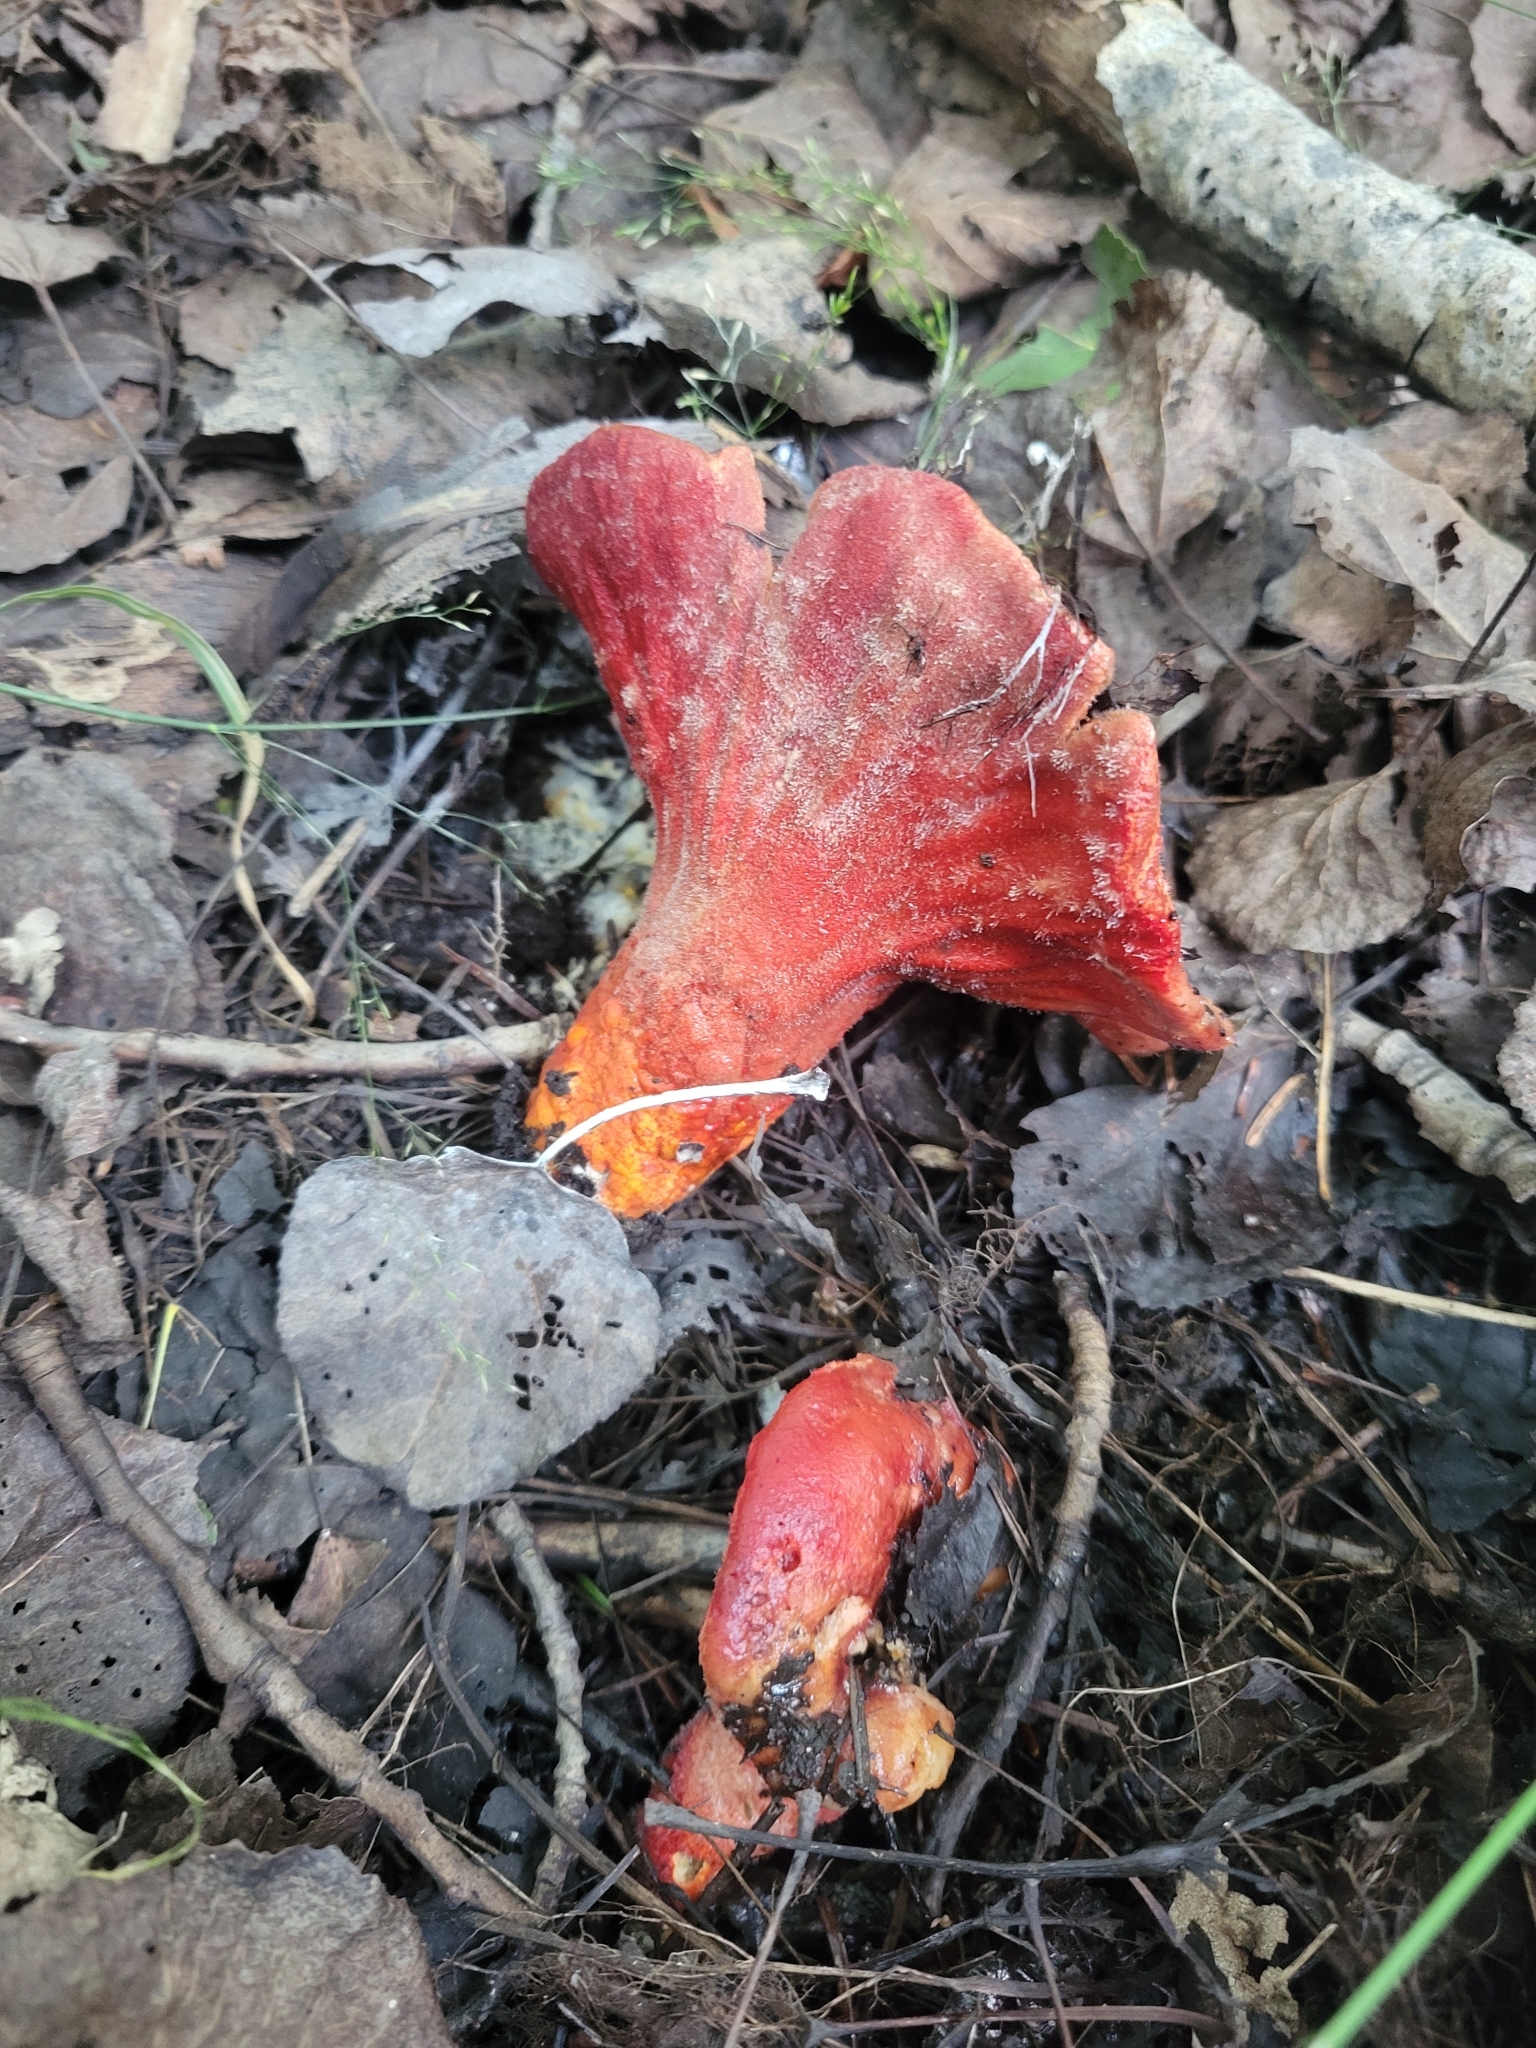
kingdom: Fungi
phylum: Ascomycota
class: Sordariomycetes
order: Hypocreales
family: Hypocreaceae
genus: Hypomyces
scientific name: Hypomyces lactifluorum
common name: Lobster mushroom
